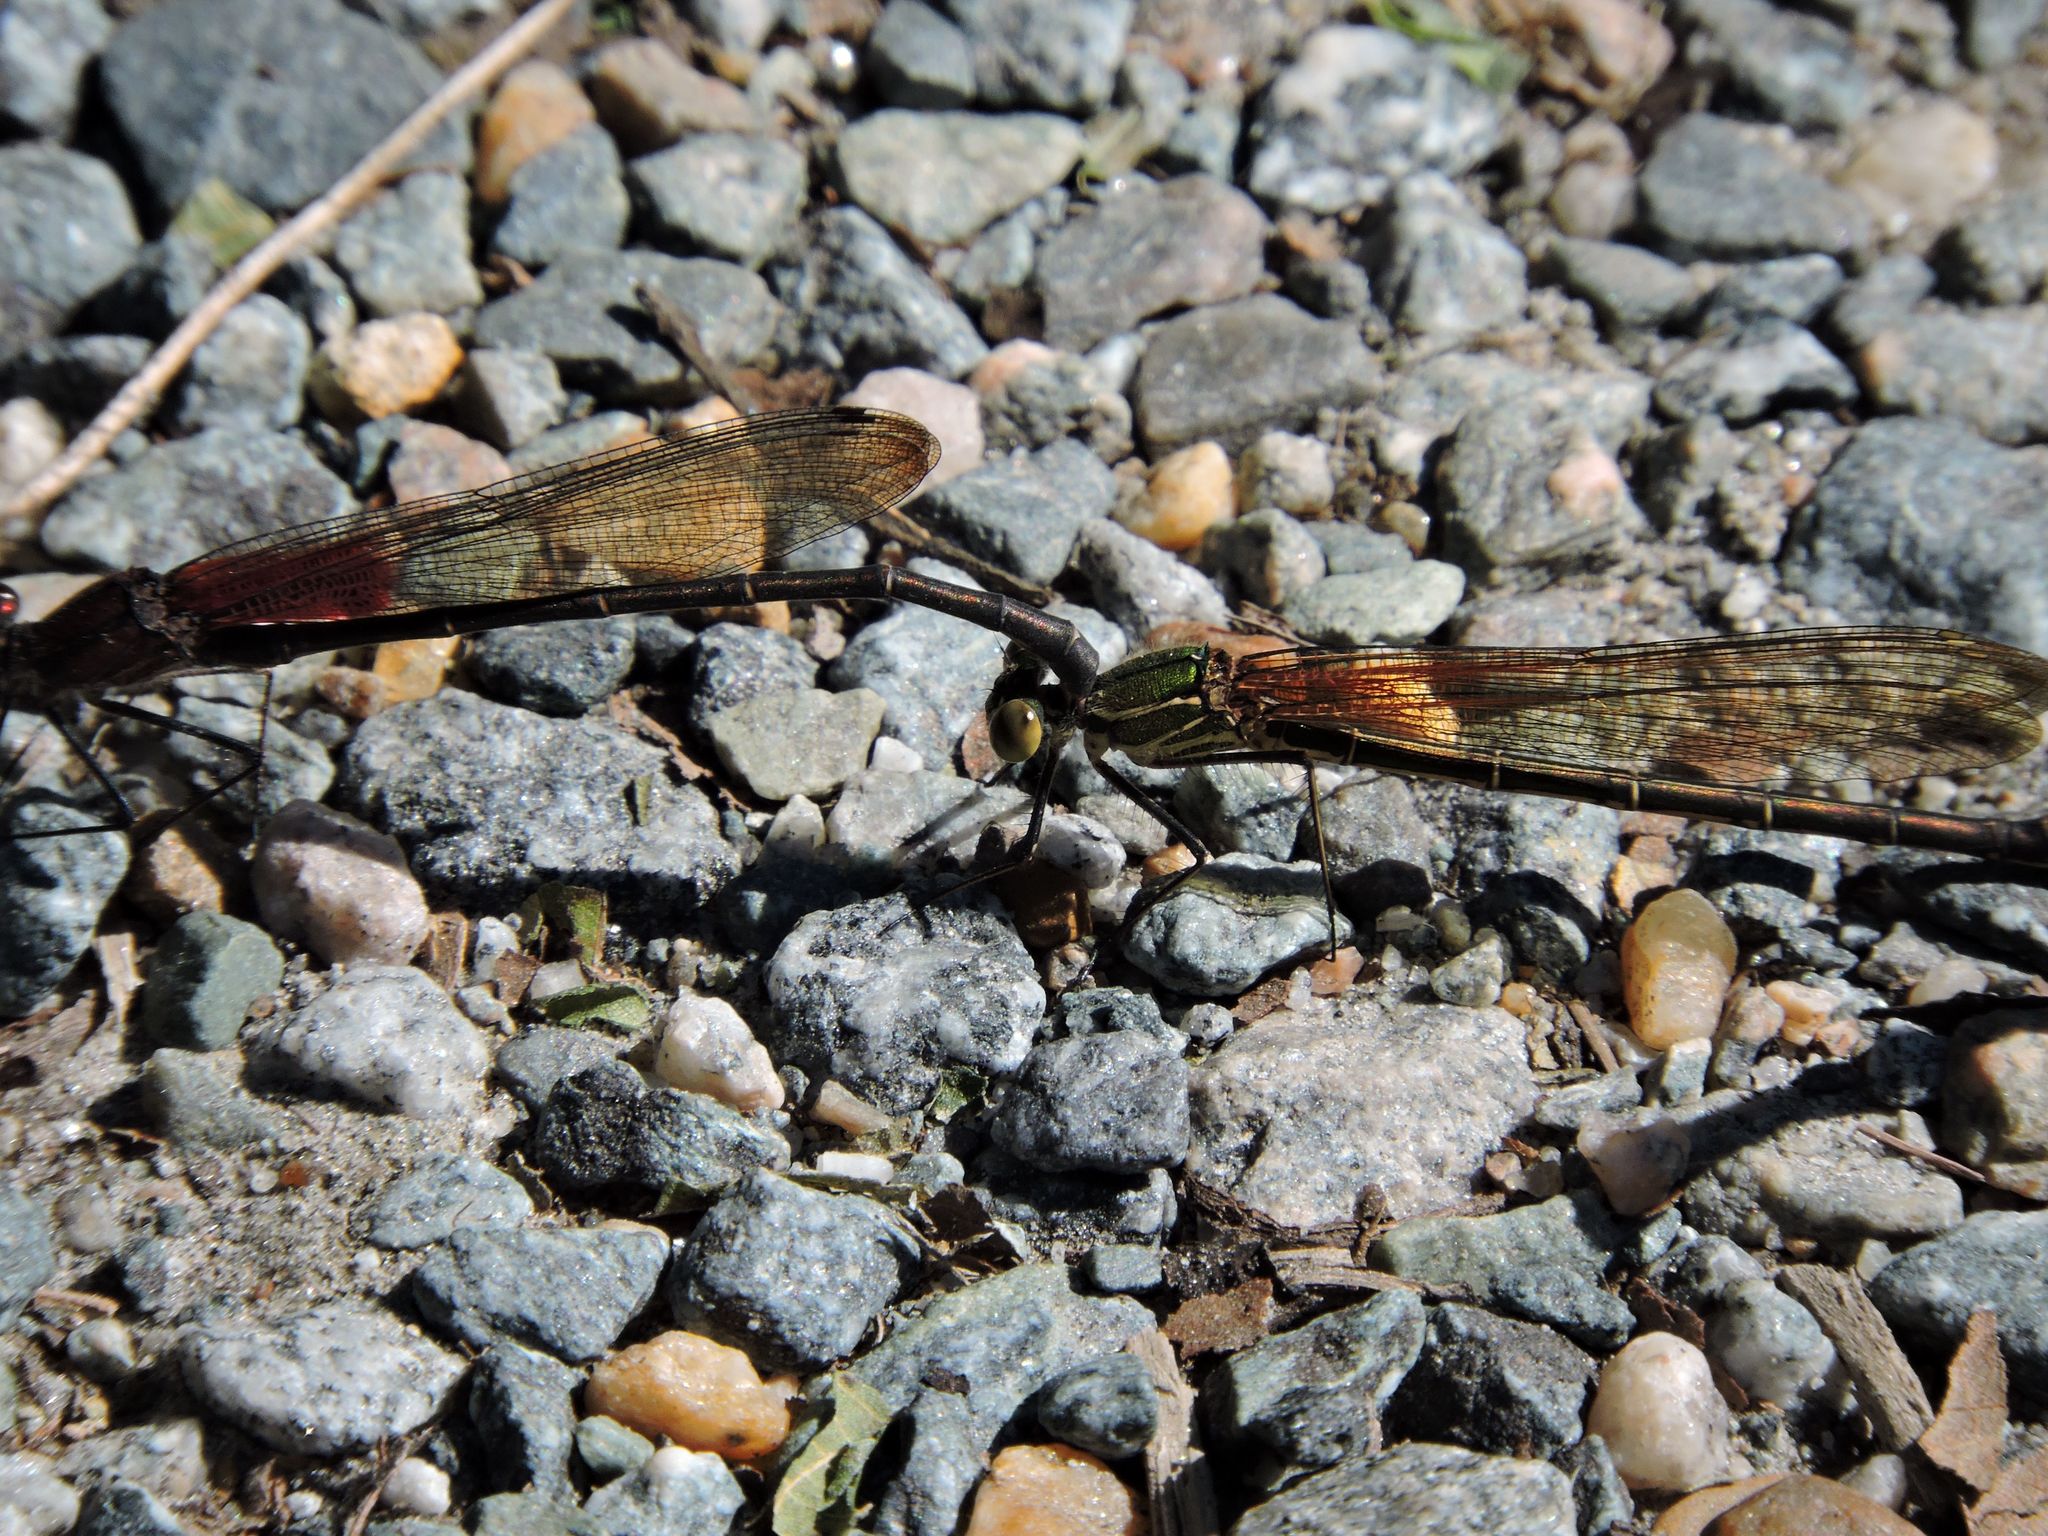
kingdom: Animalia
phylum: Arthropoda
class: Insecta
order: Odonata
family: Calopterygidae
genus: Hetaerina
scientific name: Hetaerina americana
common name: American rubyspot
